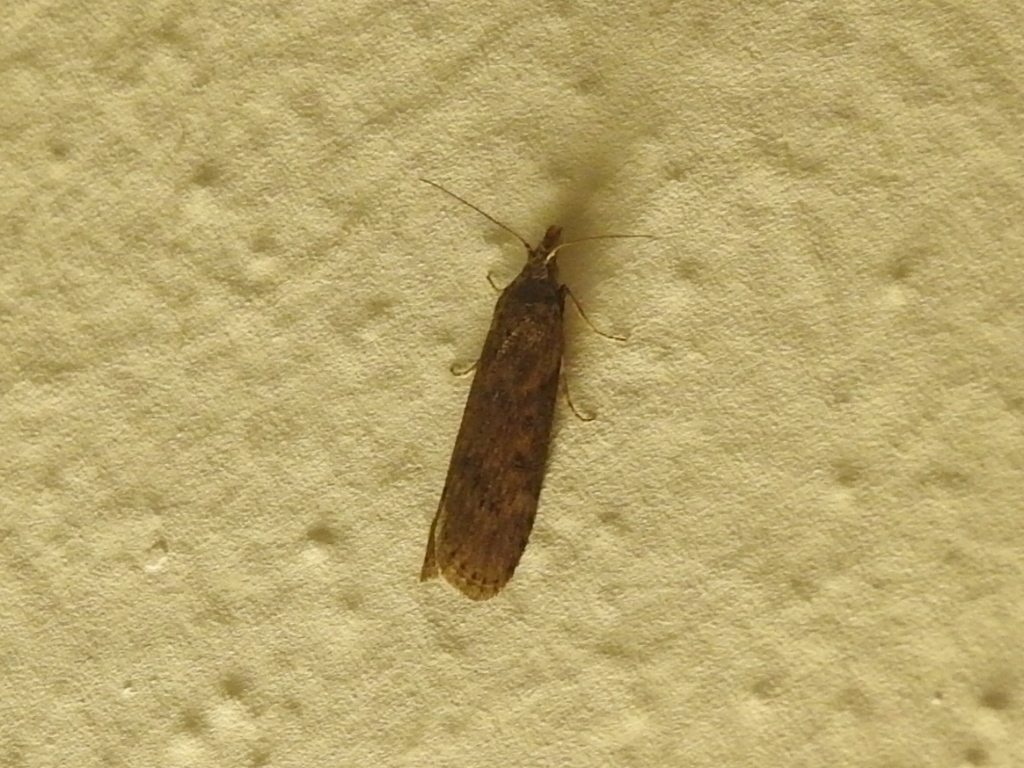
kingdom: Animalia
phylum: Arthropoda
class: Insecta
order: Lepidoptera
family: Pyralidae
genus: Lamoria
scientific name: Lamoria anella
